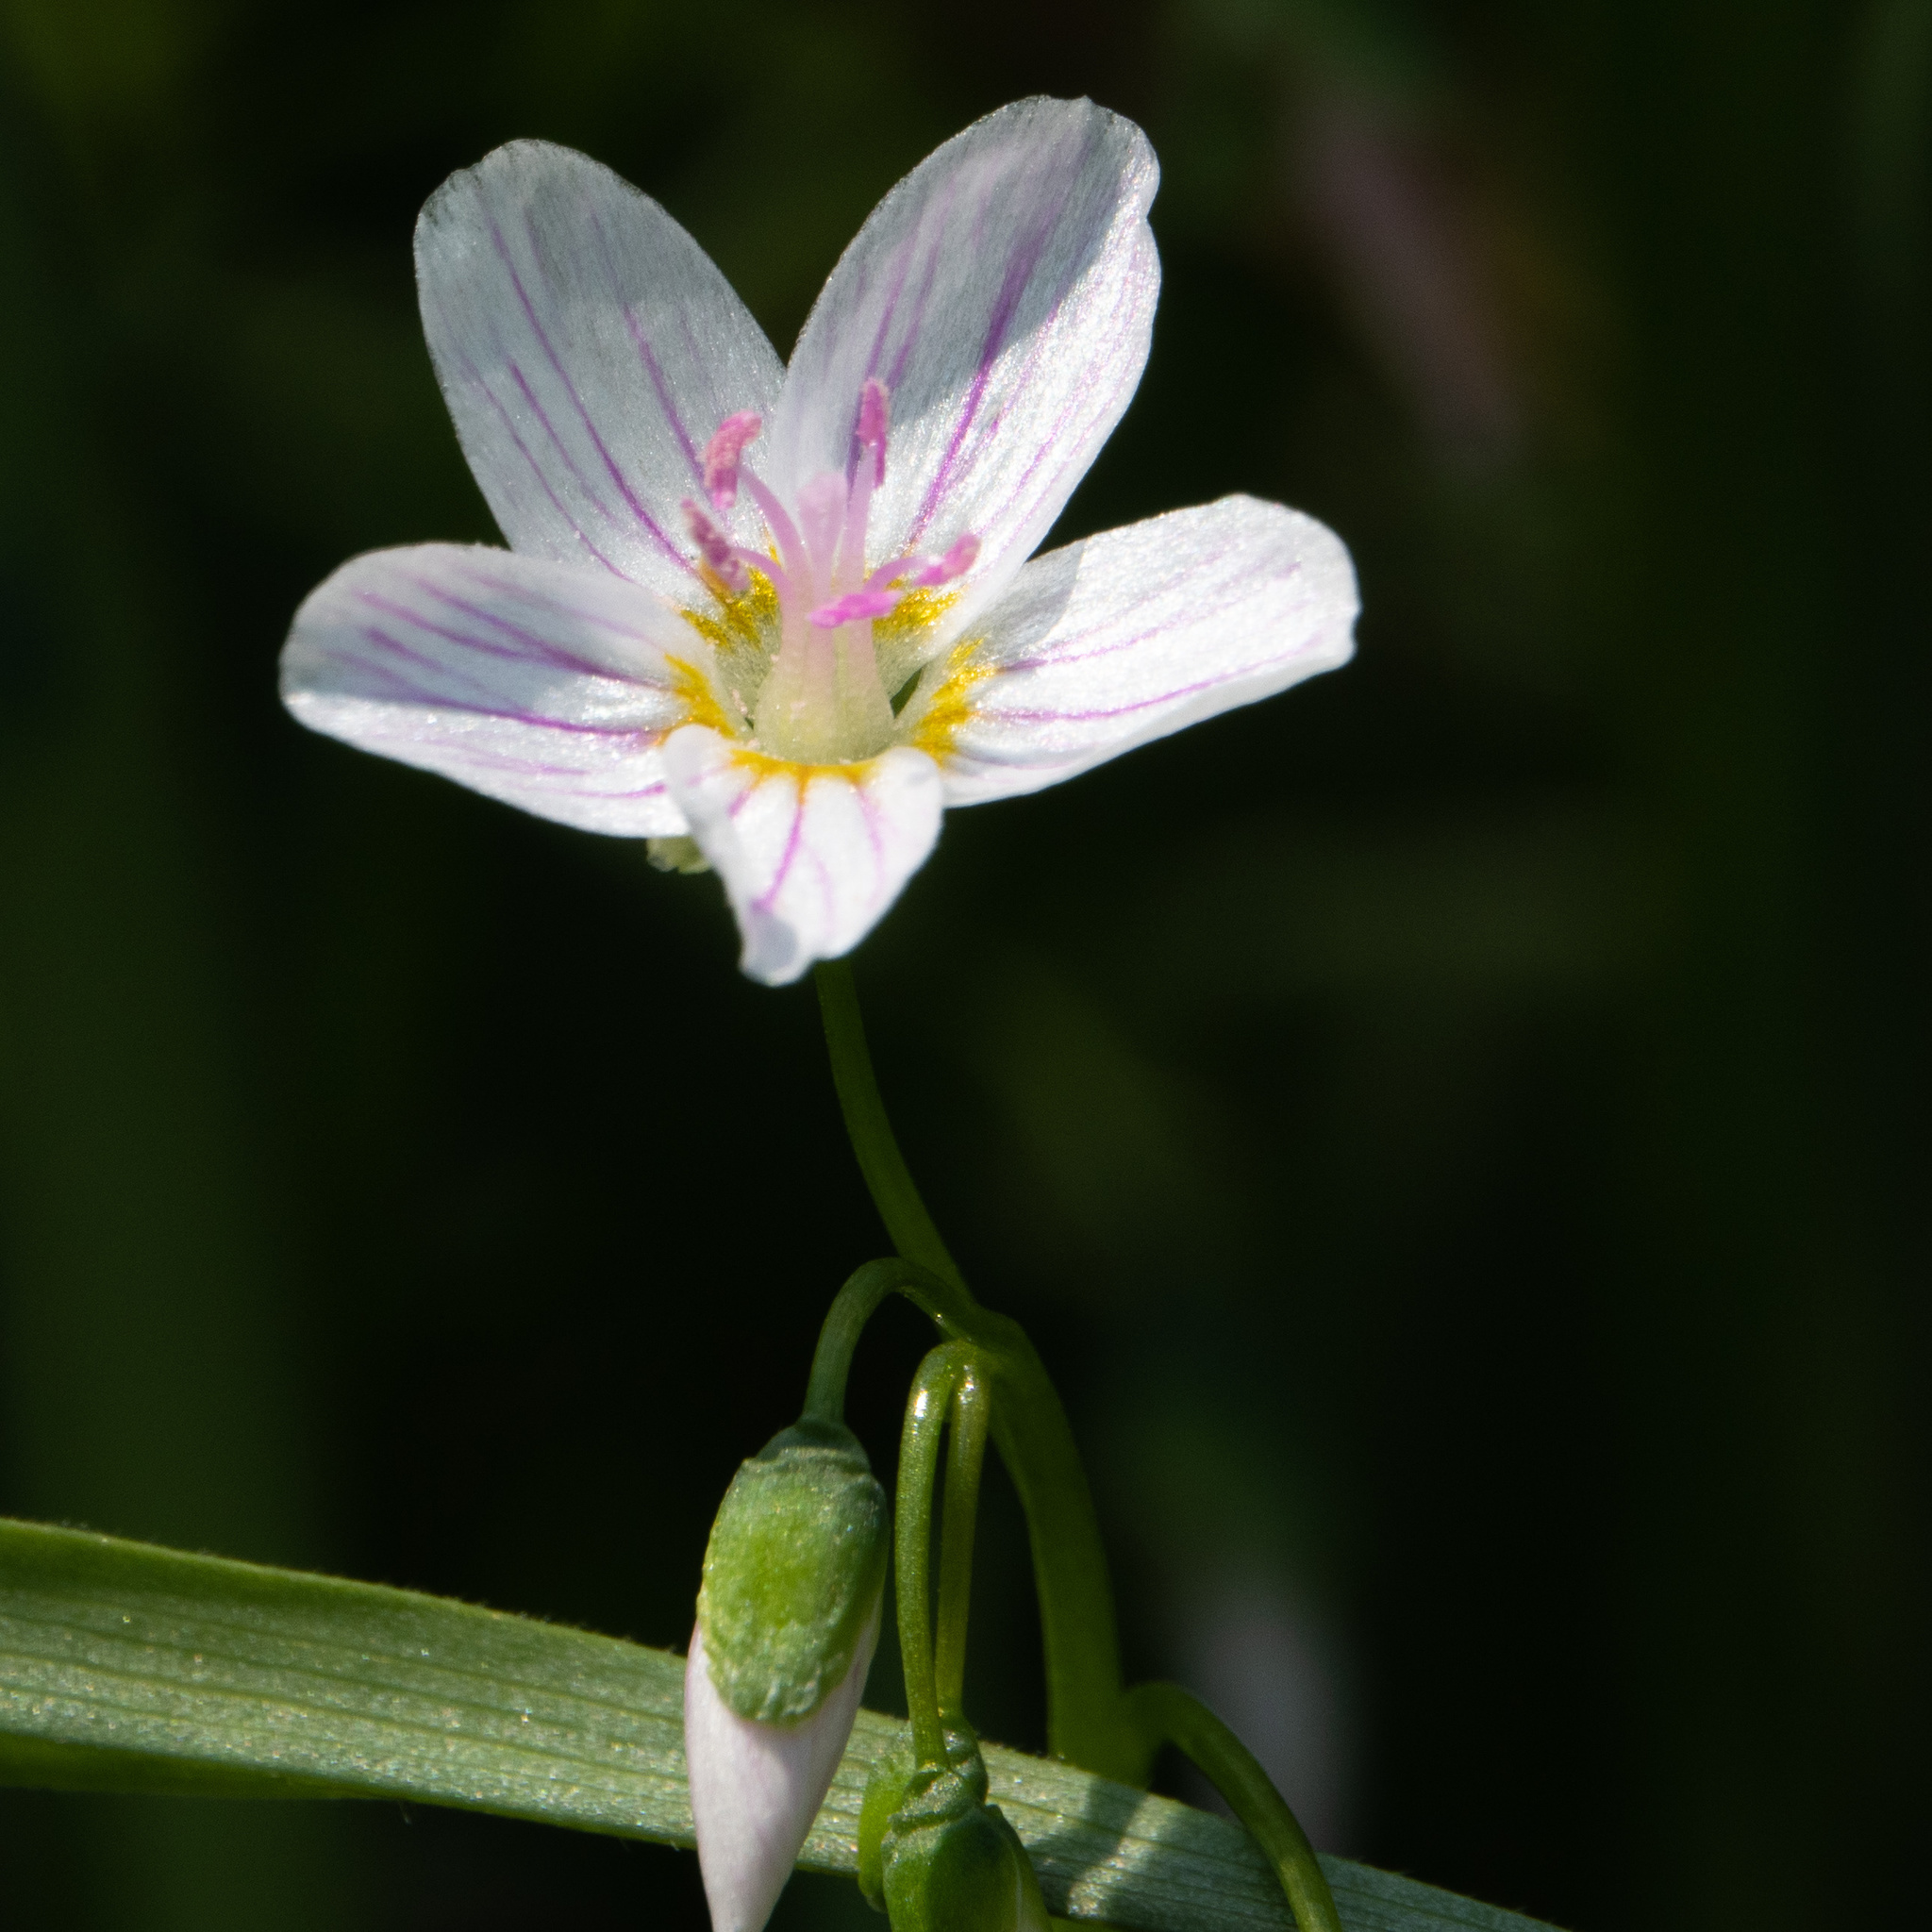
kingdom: Plantae
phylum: Tracheophyta
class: Magnoliopsida
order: Caryophyllales
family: Montiaceae
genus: Claytonia
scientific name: Claytonia virginica
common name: Virginia springbeauty
